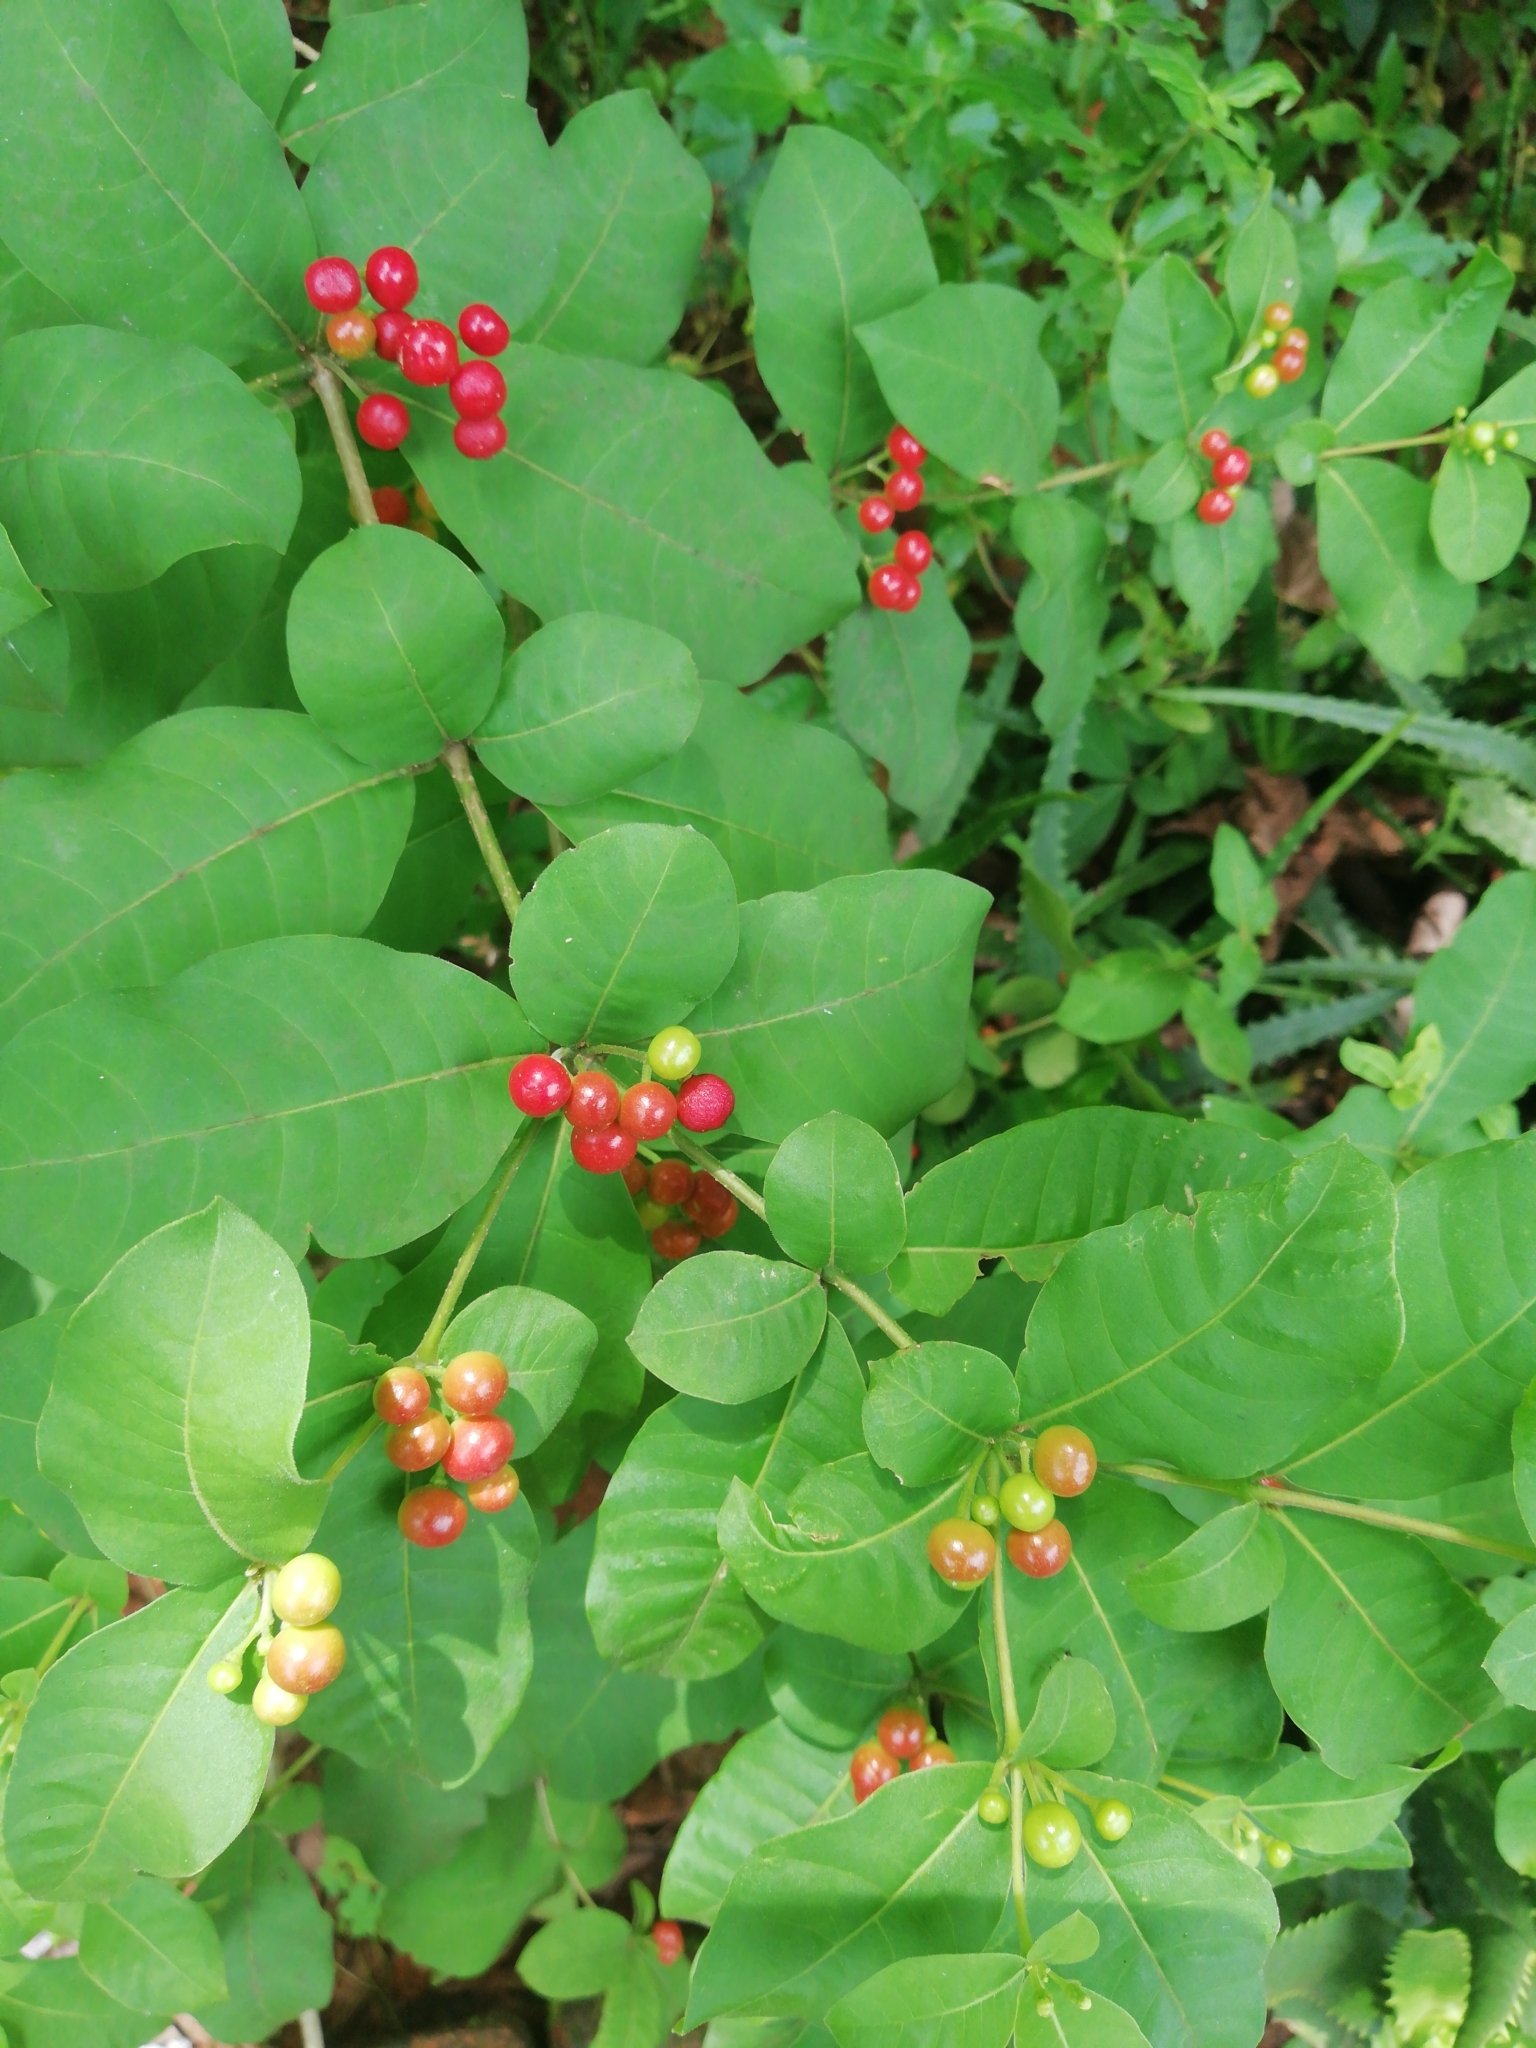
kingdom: Plantae
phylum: Tracheophyta
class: Magnoliopsida
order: Gentianales
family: Apocynaceae
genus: Rauvolfia
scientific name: Rauvolfia tetraphylla
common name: Four-leaf devil-pepper
